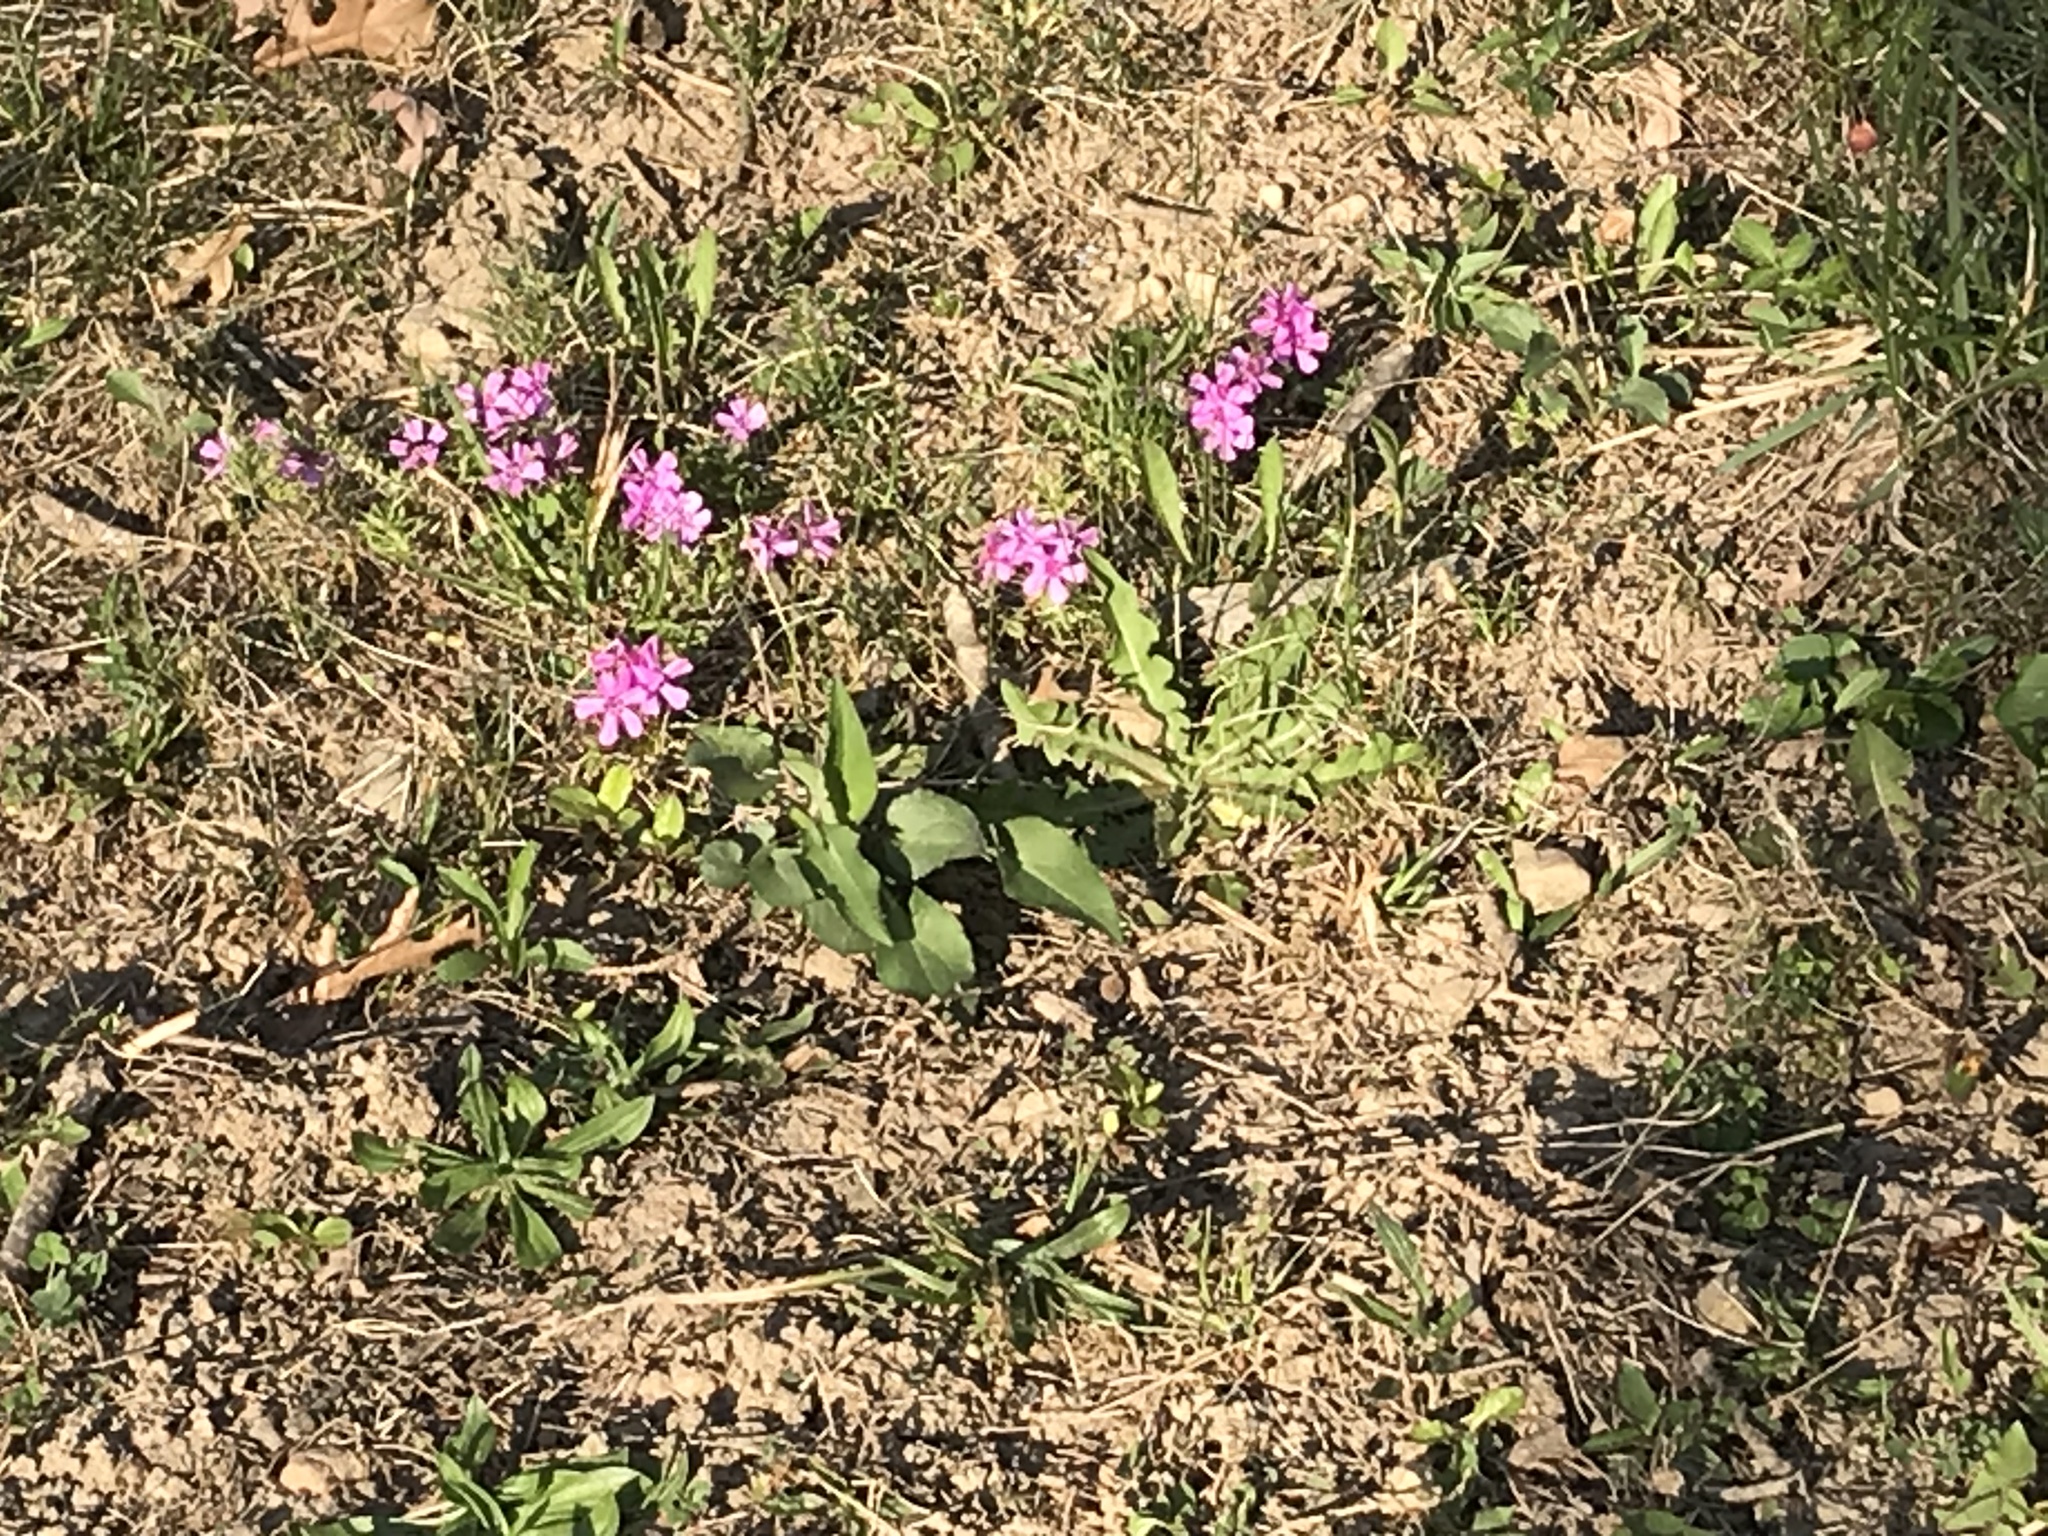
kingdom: Plantae
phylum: Tracheophyta
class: Magnoliopsida
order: Ericales
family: Polemoniaceae
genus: Phlox
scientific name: Phlox subulata
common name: Moss phlox
